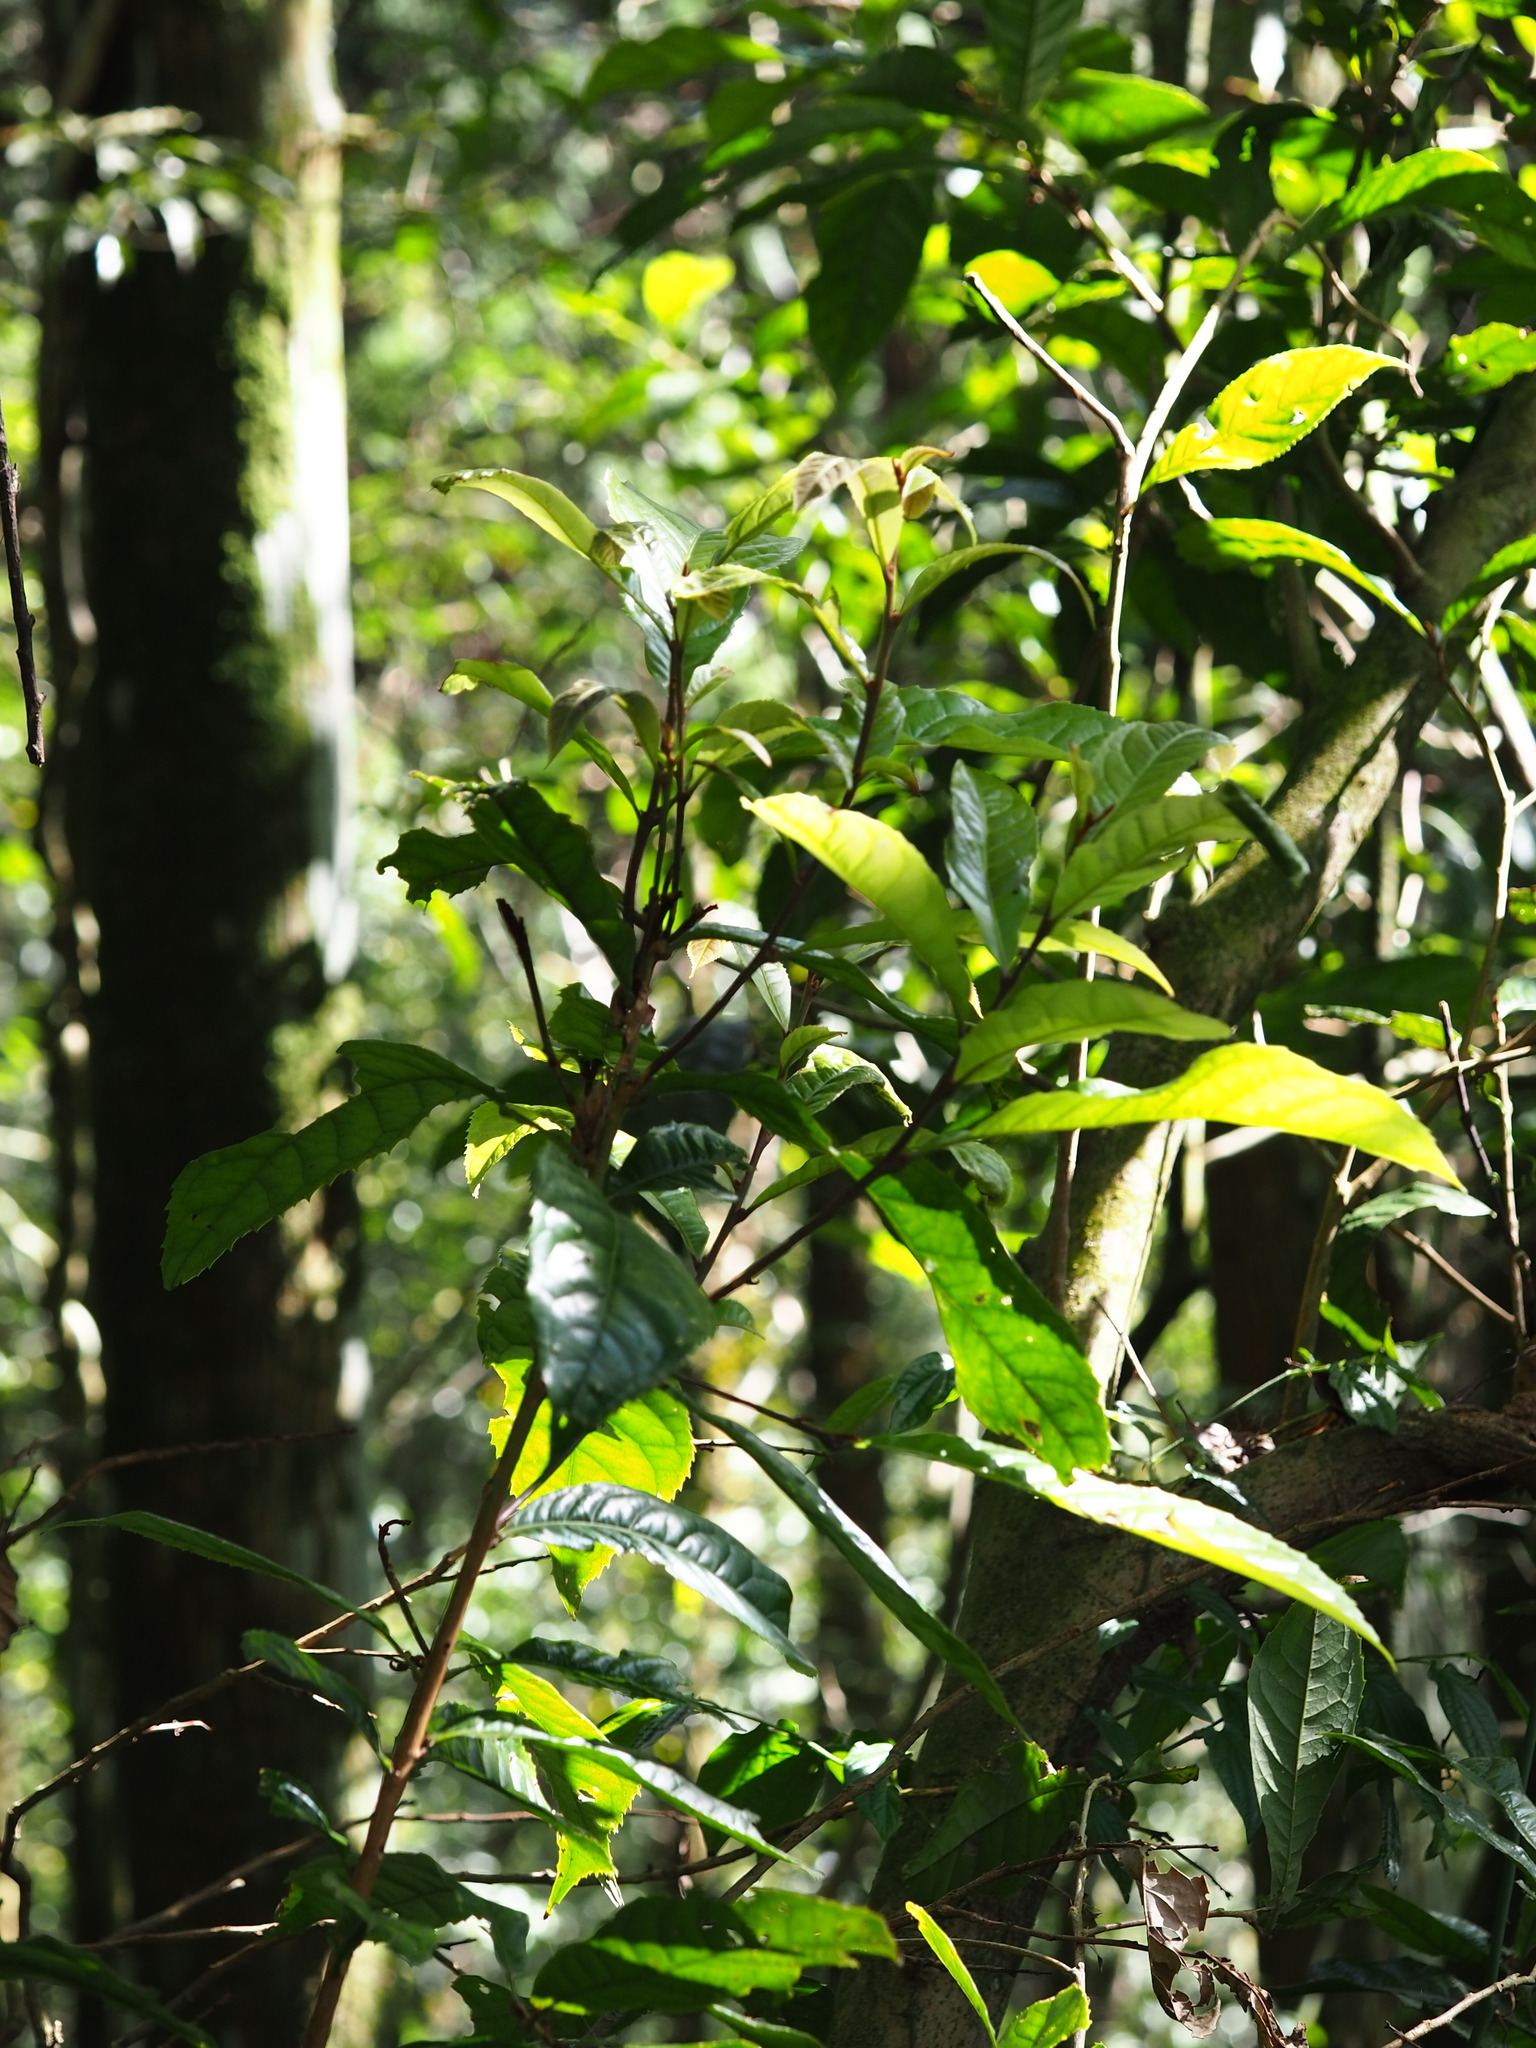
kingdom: Plantae
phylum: Tracheophyta
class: Magnoliopsida
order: Gentianales
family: Rubiaceae
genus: Lasianthus
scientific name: Lasianthus fordii
